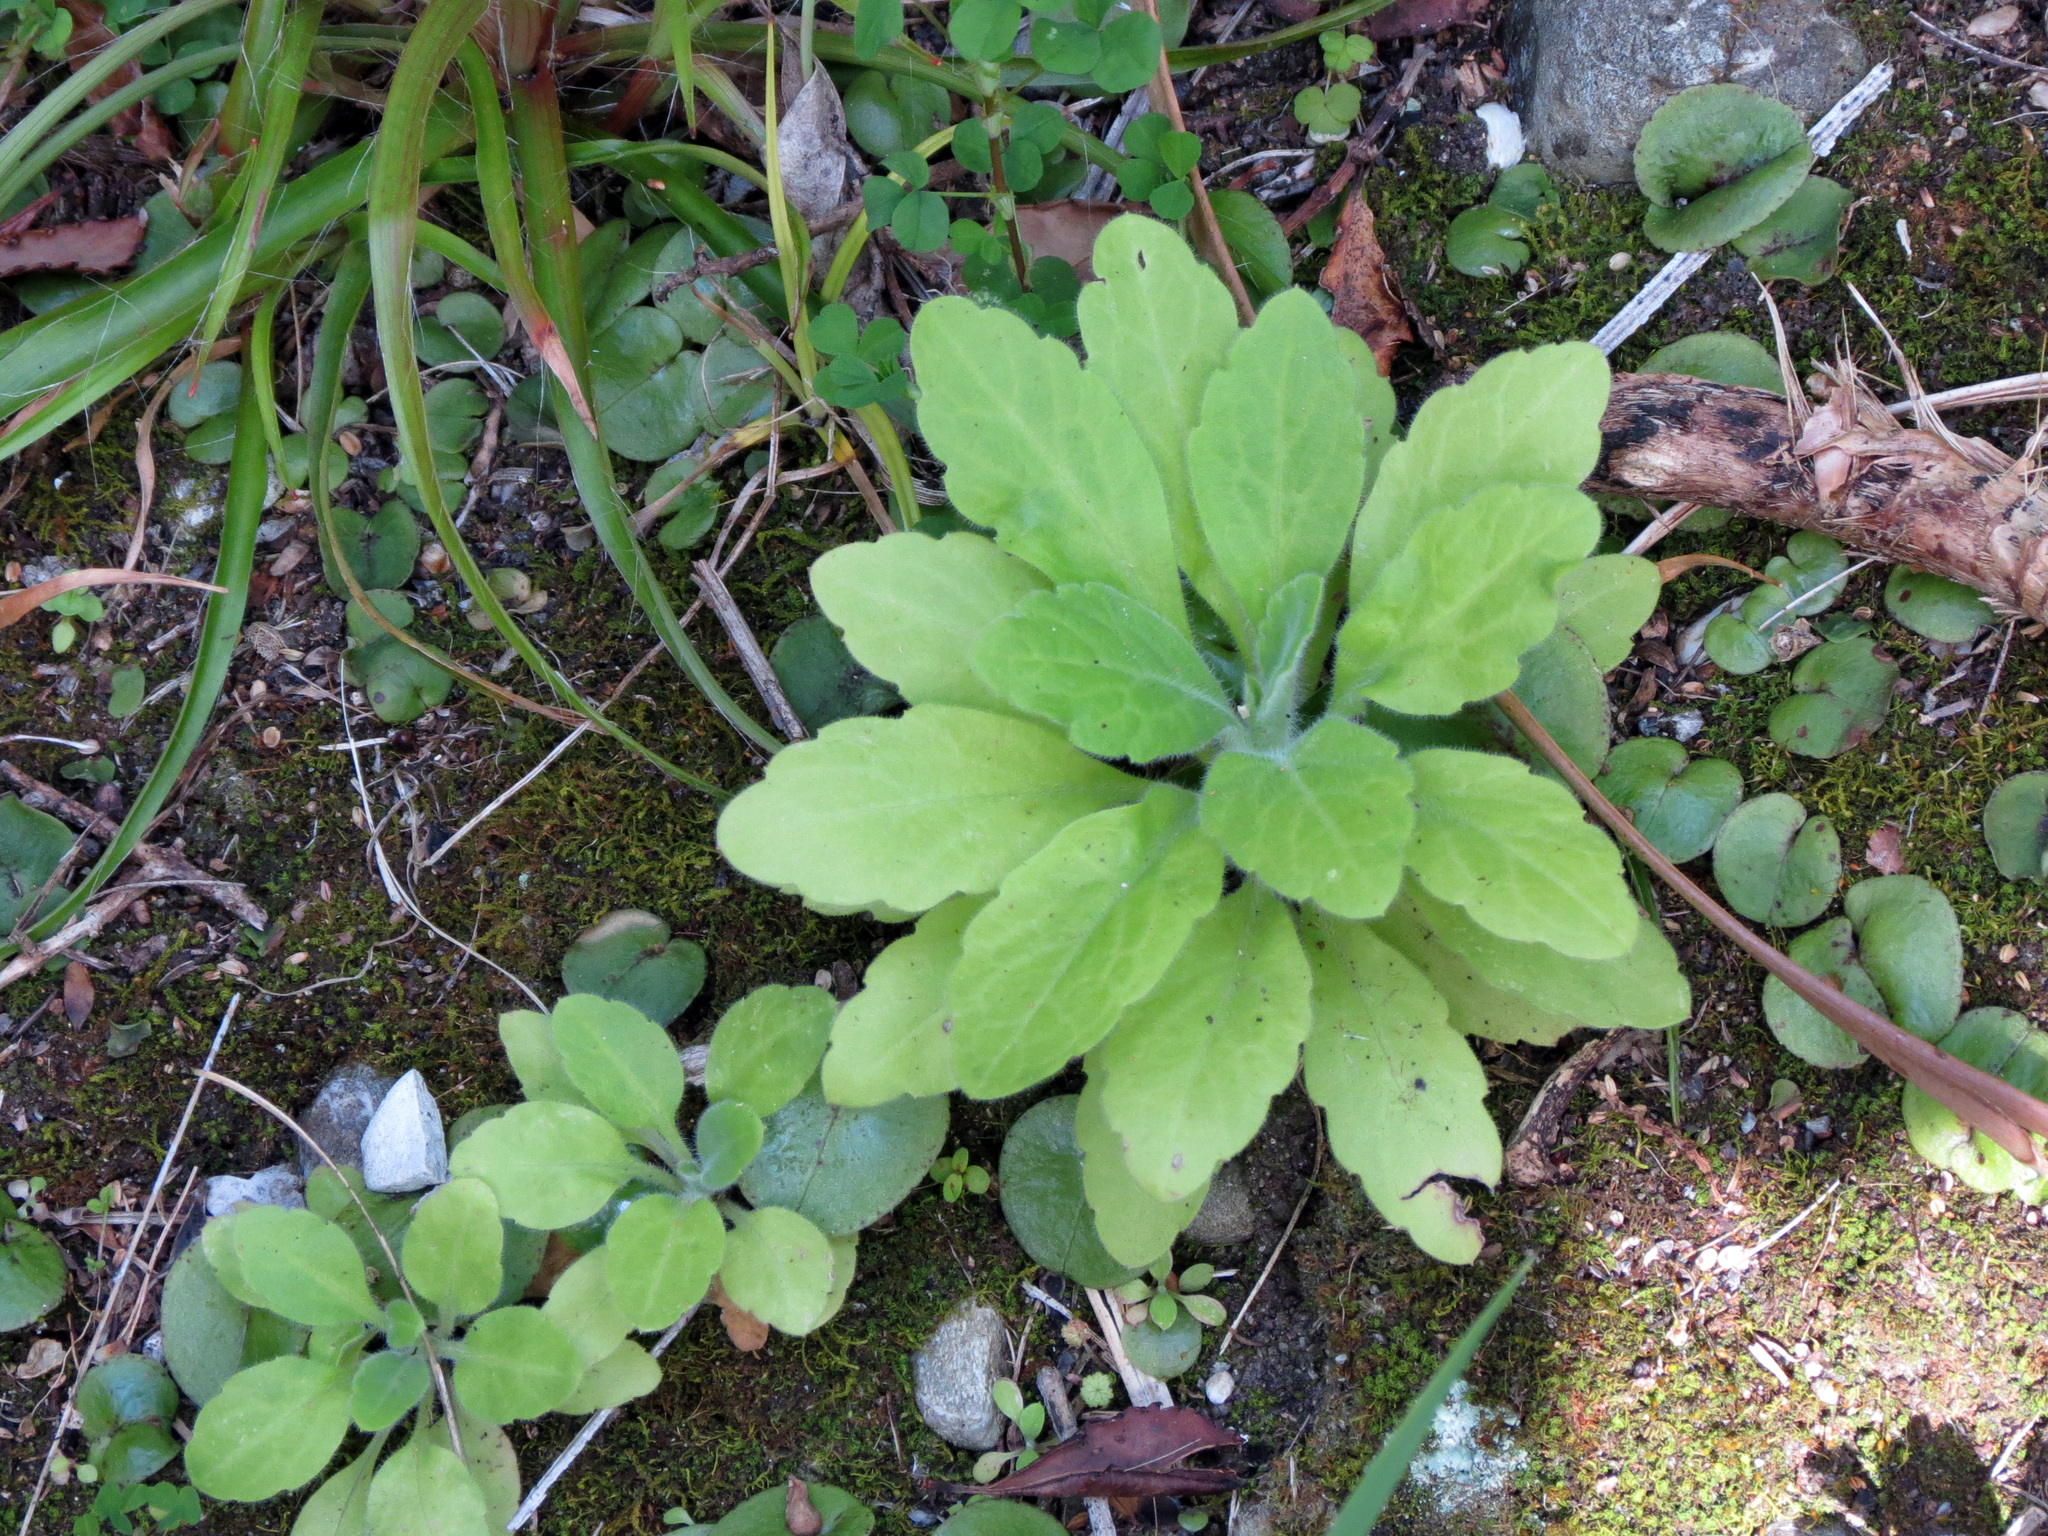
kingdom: Plantae
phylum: Tracheophyta
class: Magnoliopsida
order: Asterales
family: Asteraceae
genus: Erigeron
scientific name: Erigeron sumatrensis
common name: Daisy
